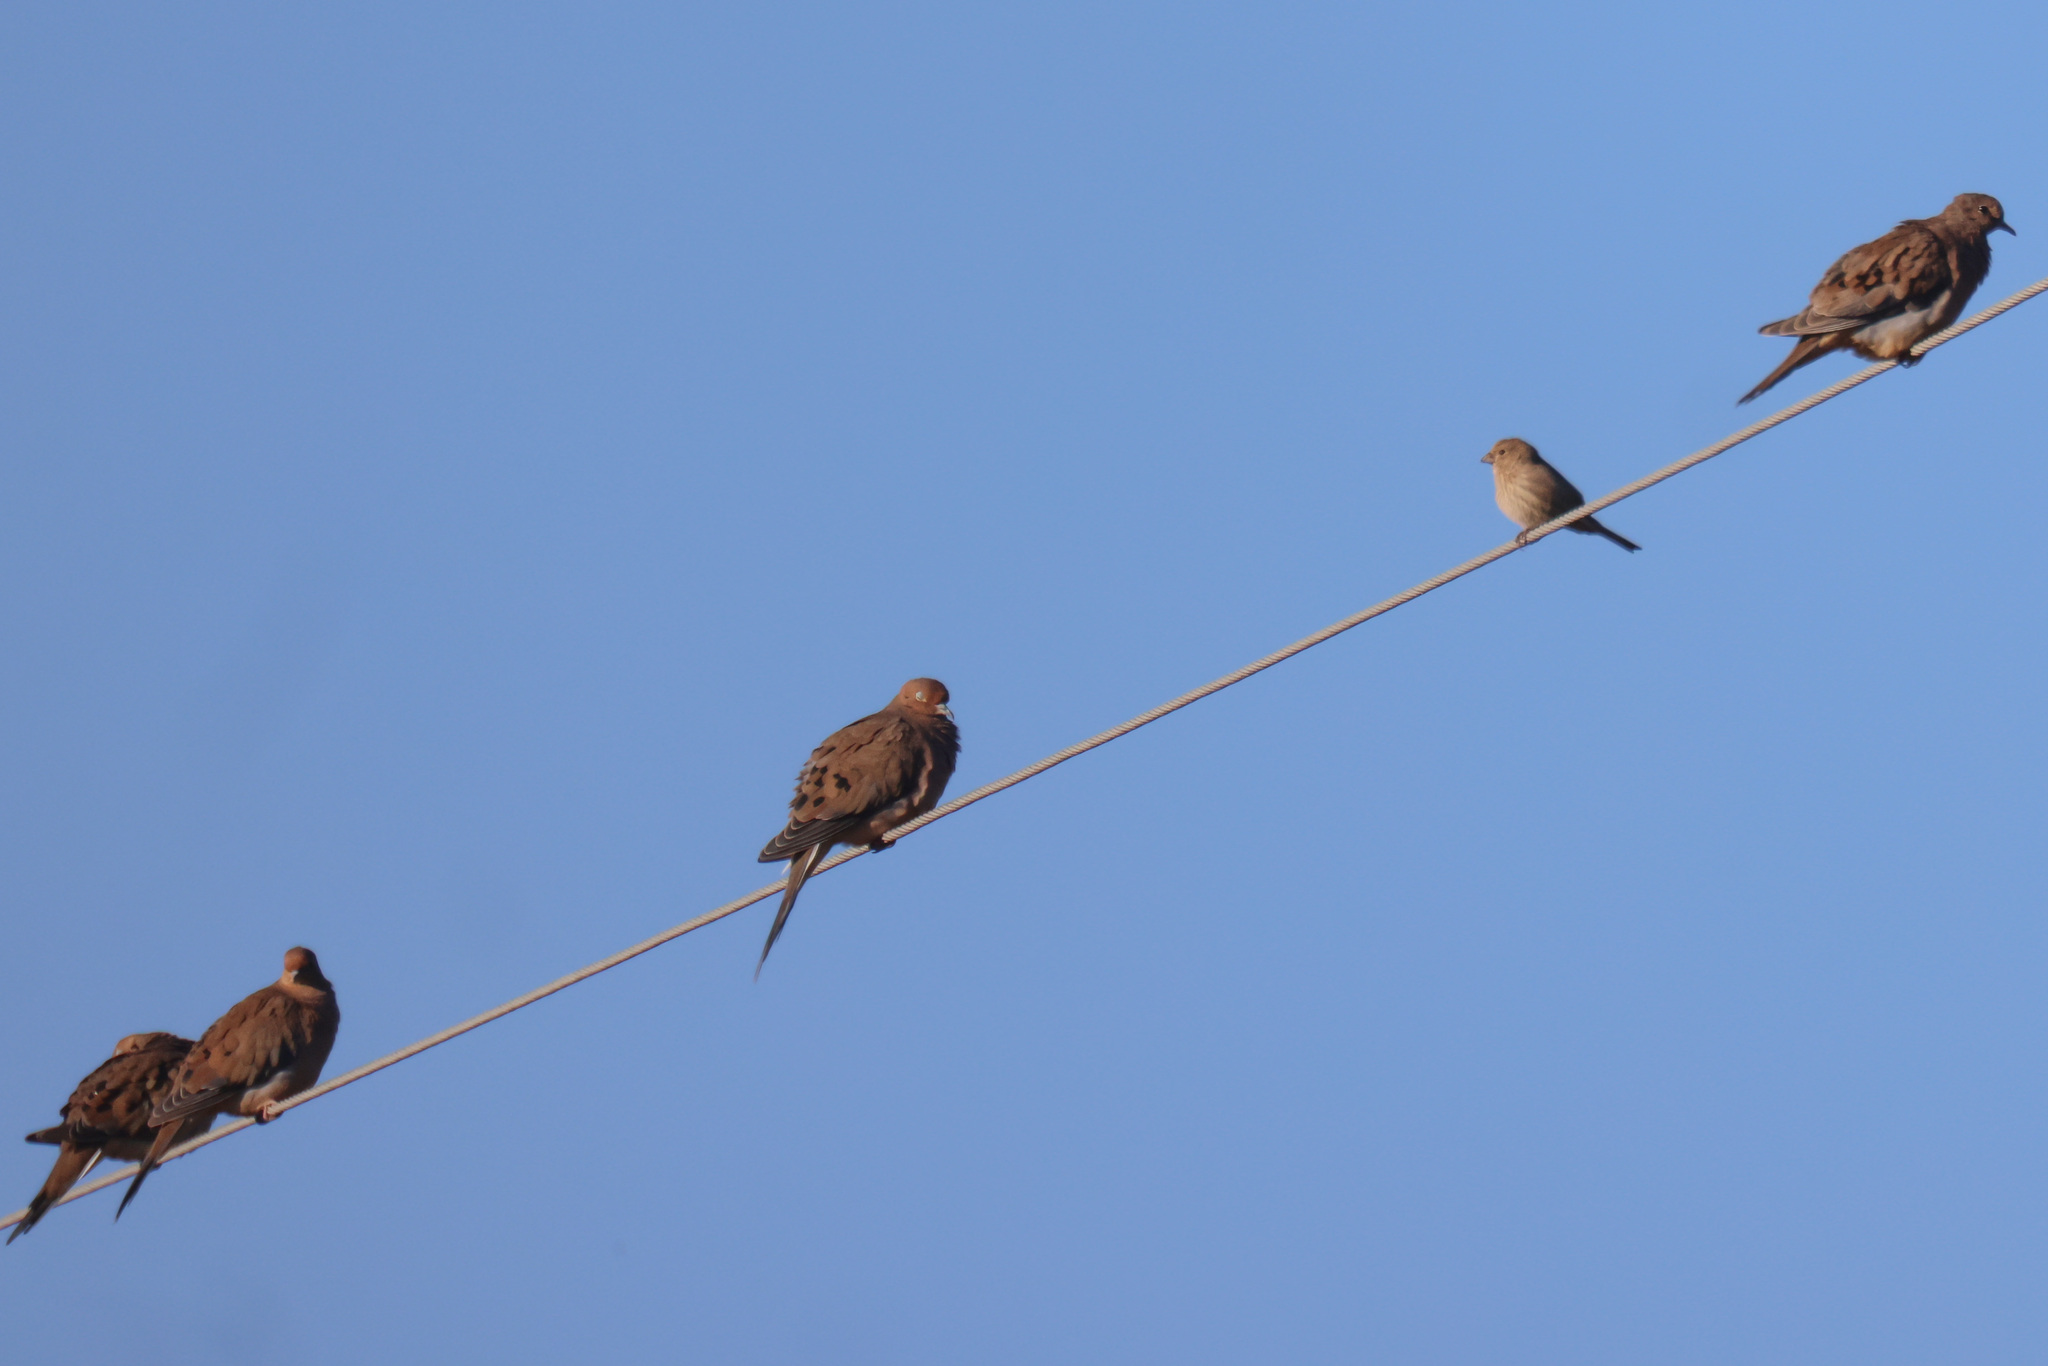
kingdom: Animalia
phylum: Chordata
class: Aves
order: Passeriformes
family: Fringillidae
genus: Haemorhous
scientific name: Haemorhous mexicanus
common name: House finch
